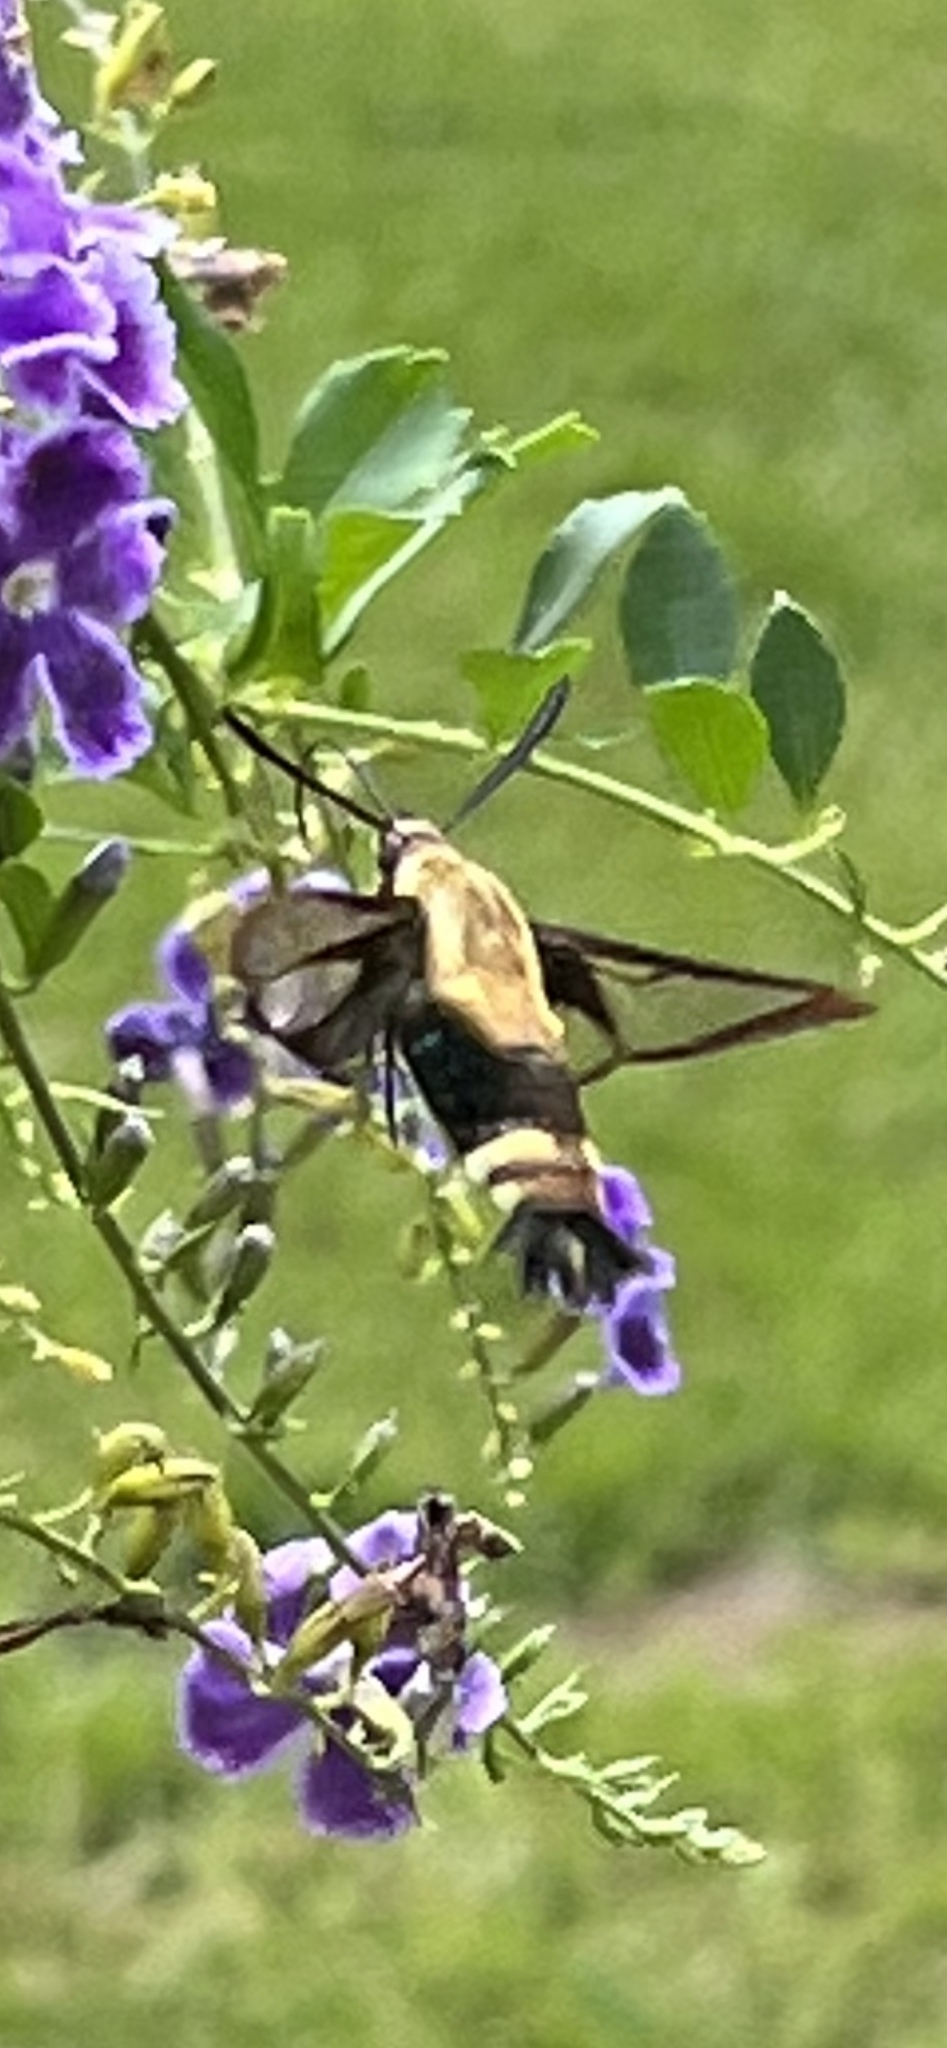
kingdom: Animalia
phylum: Arthropoda
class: Insecta
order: Lepidoptera
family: Sphingidae
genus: Hemaris
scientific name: Hemaris diffinis
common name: Bumblebee moth
